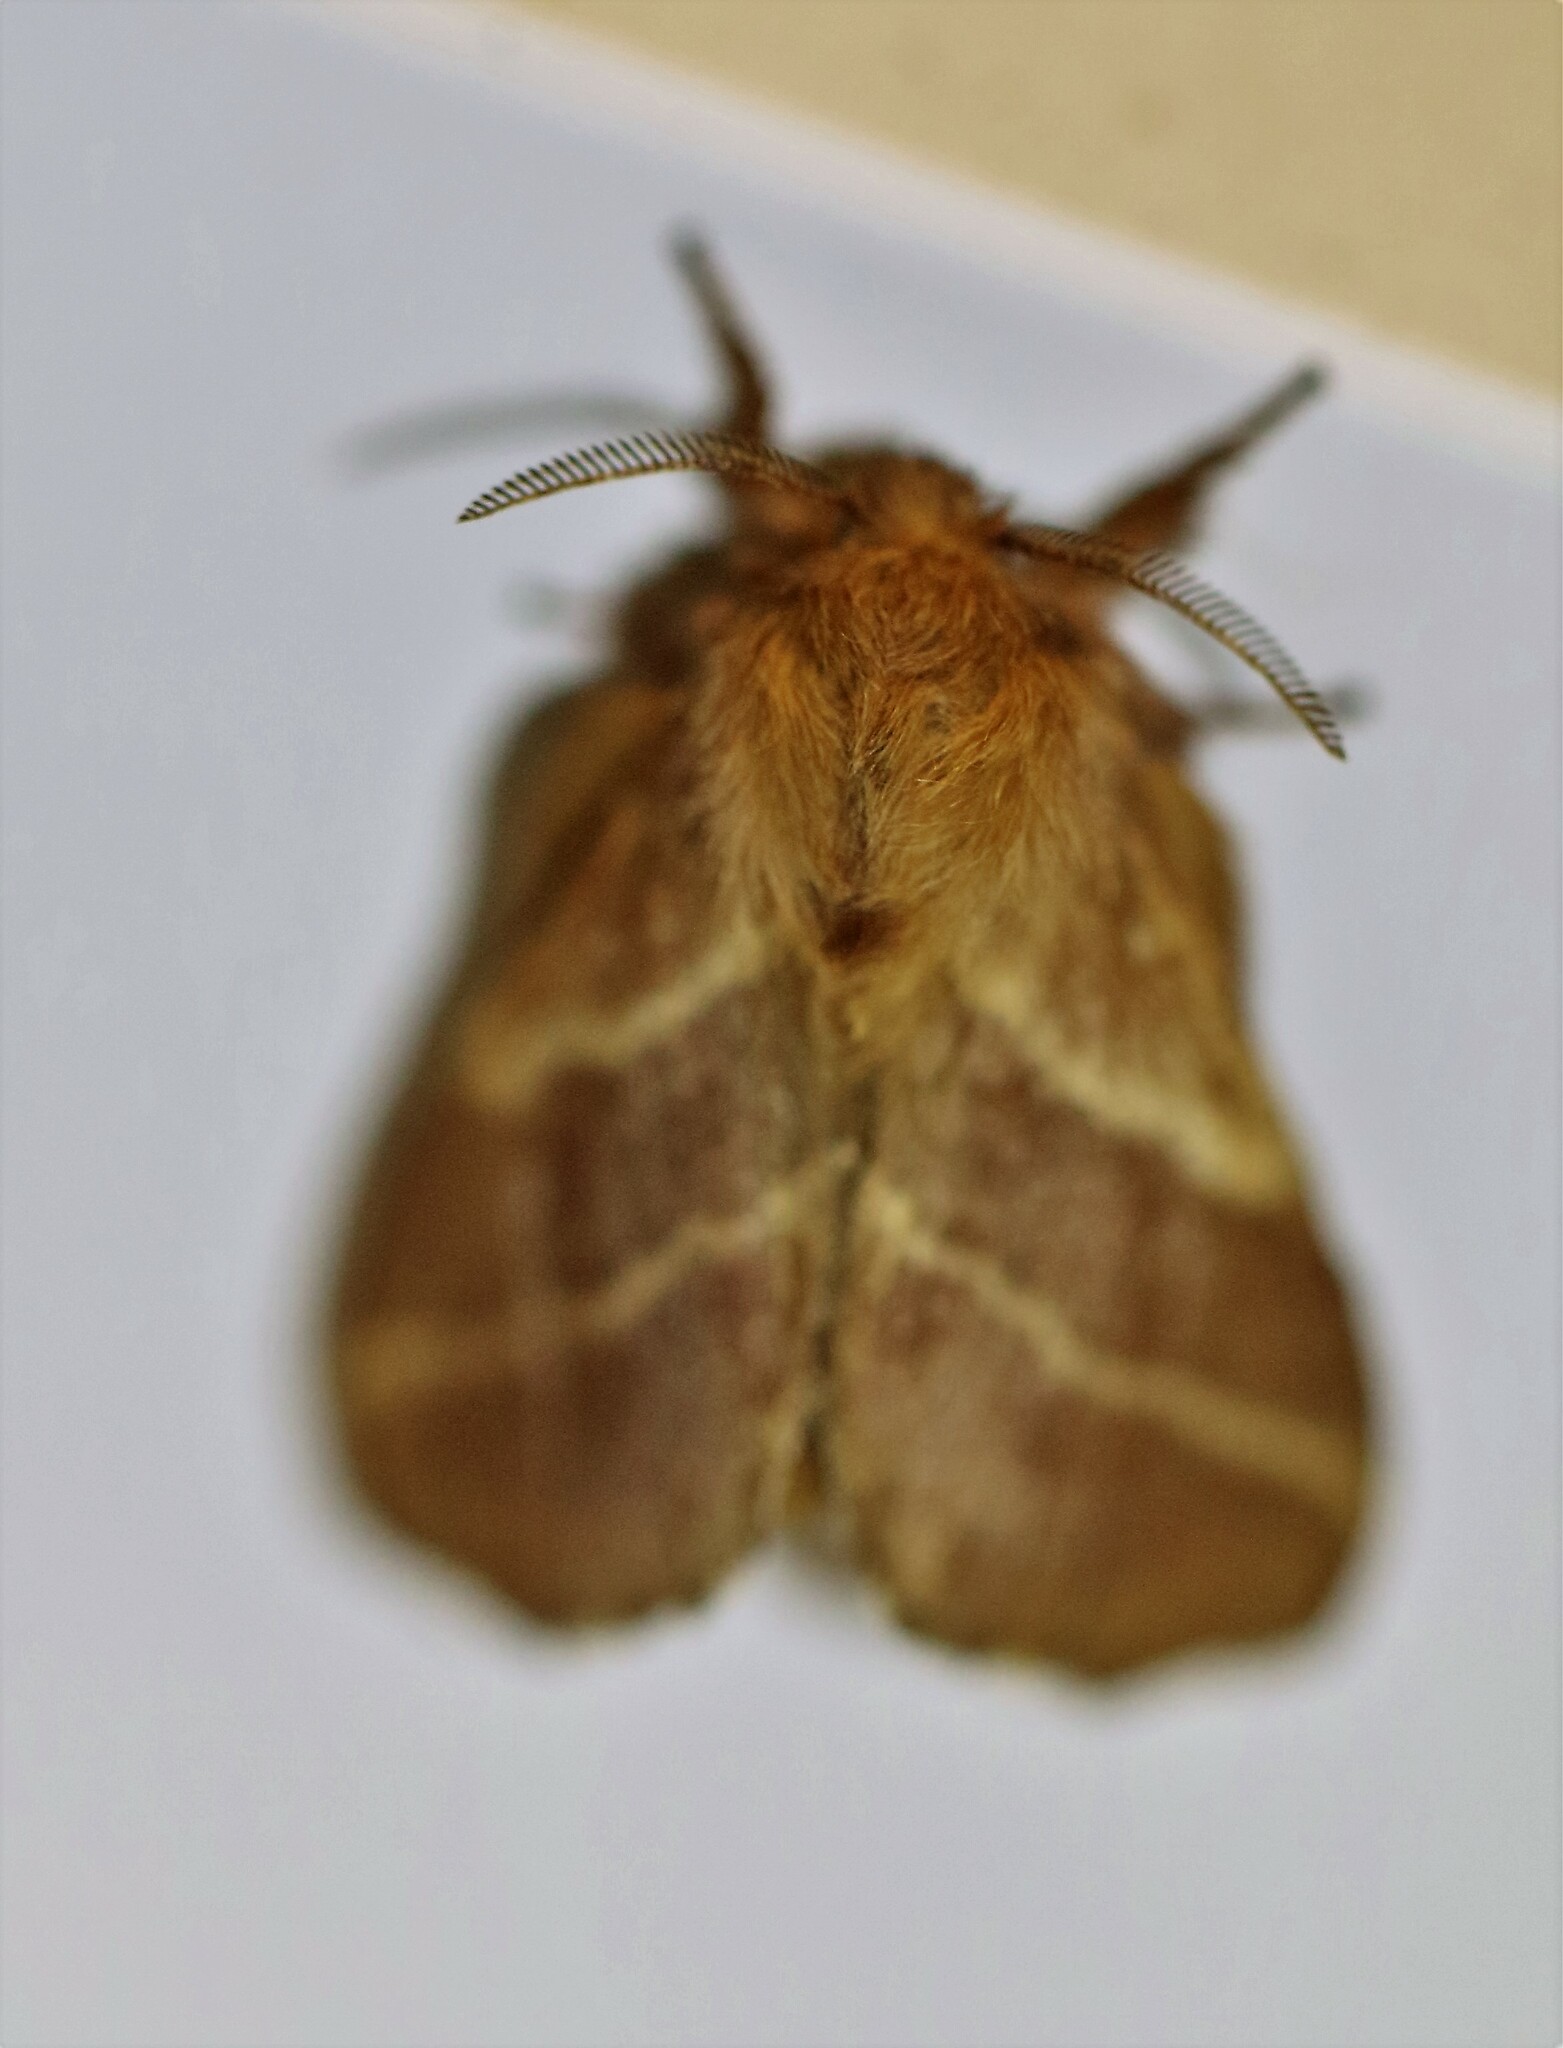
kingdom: Animalia
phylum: Arthropoda
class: Insecta
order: Lepidoptera
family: Lasiocampidae
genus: Malacosoma
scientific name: Malacosoma americana
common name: Eastern tent caterpillar moth
